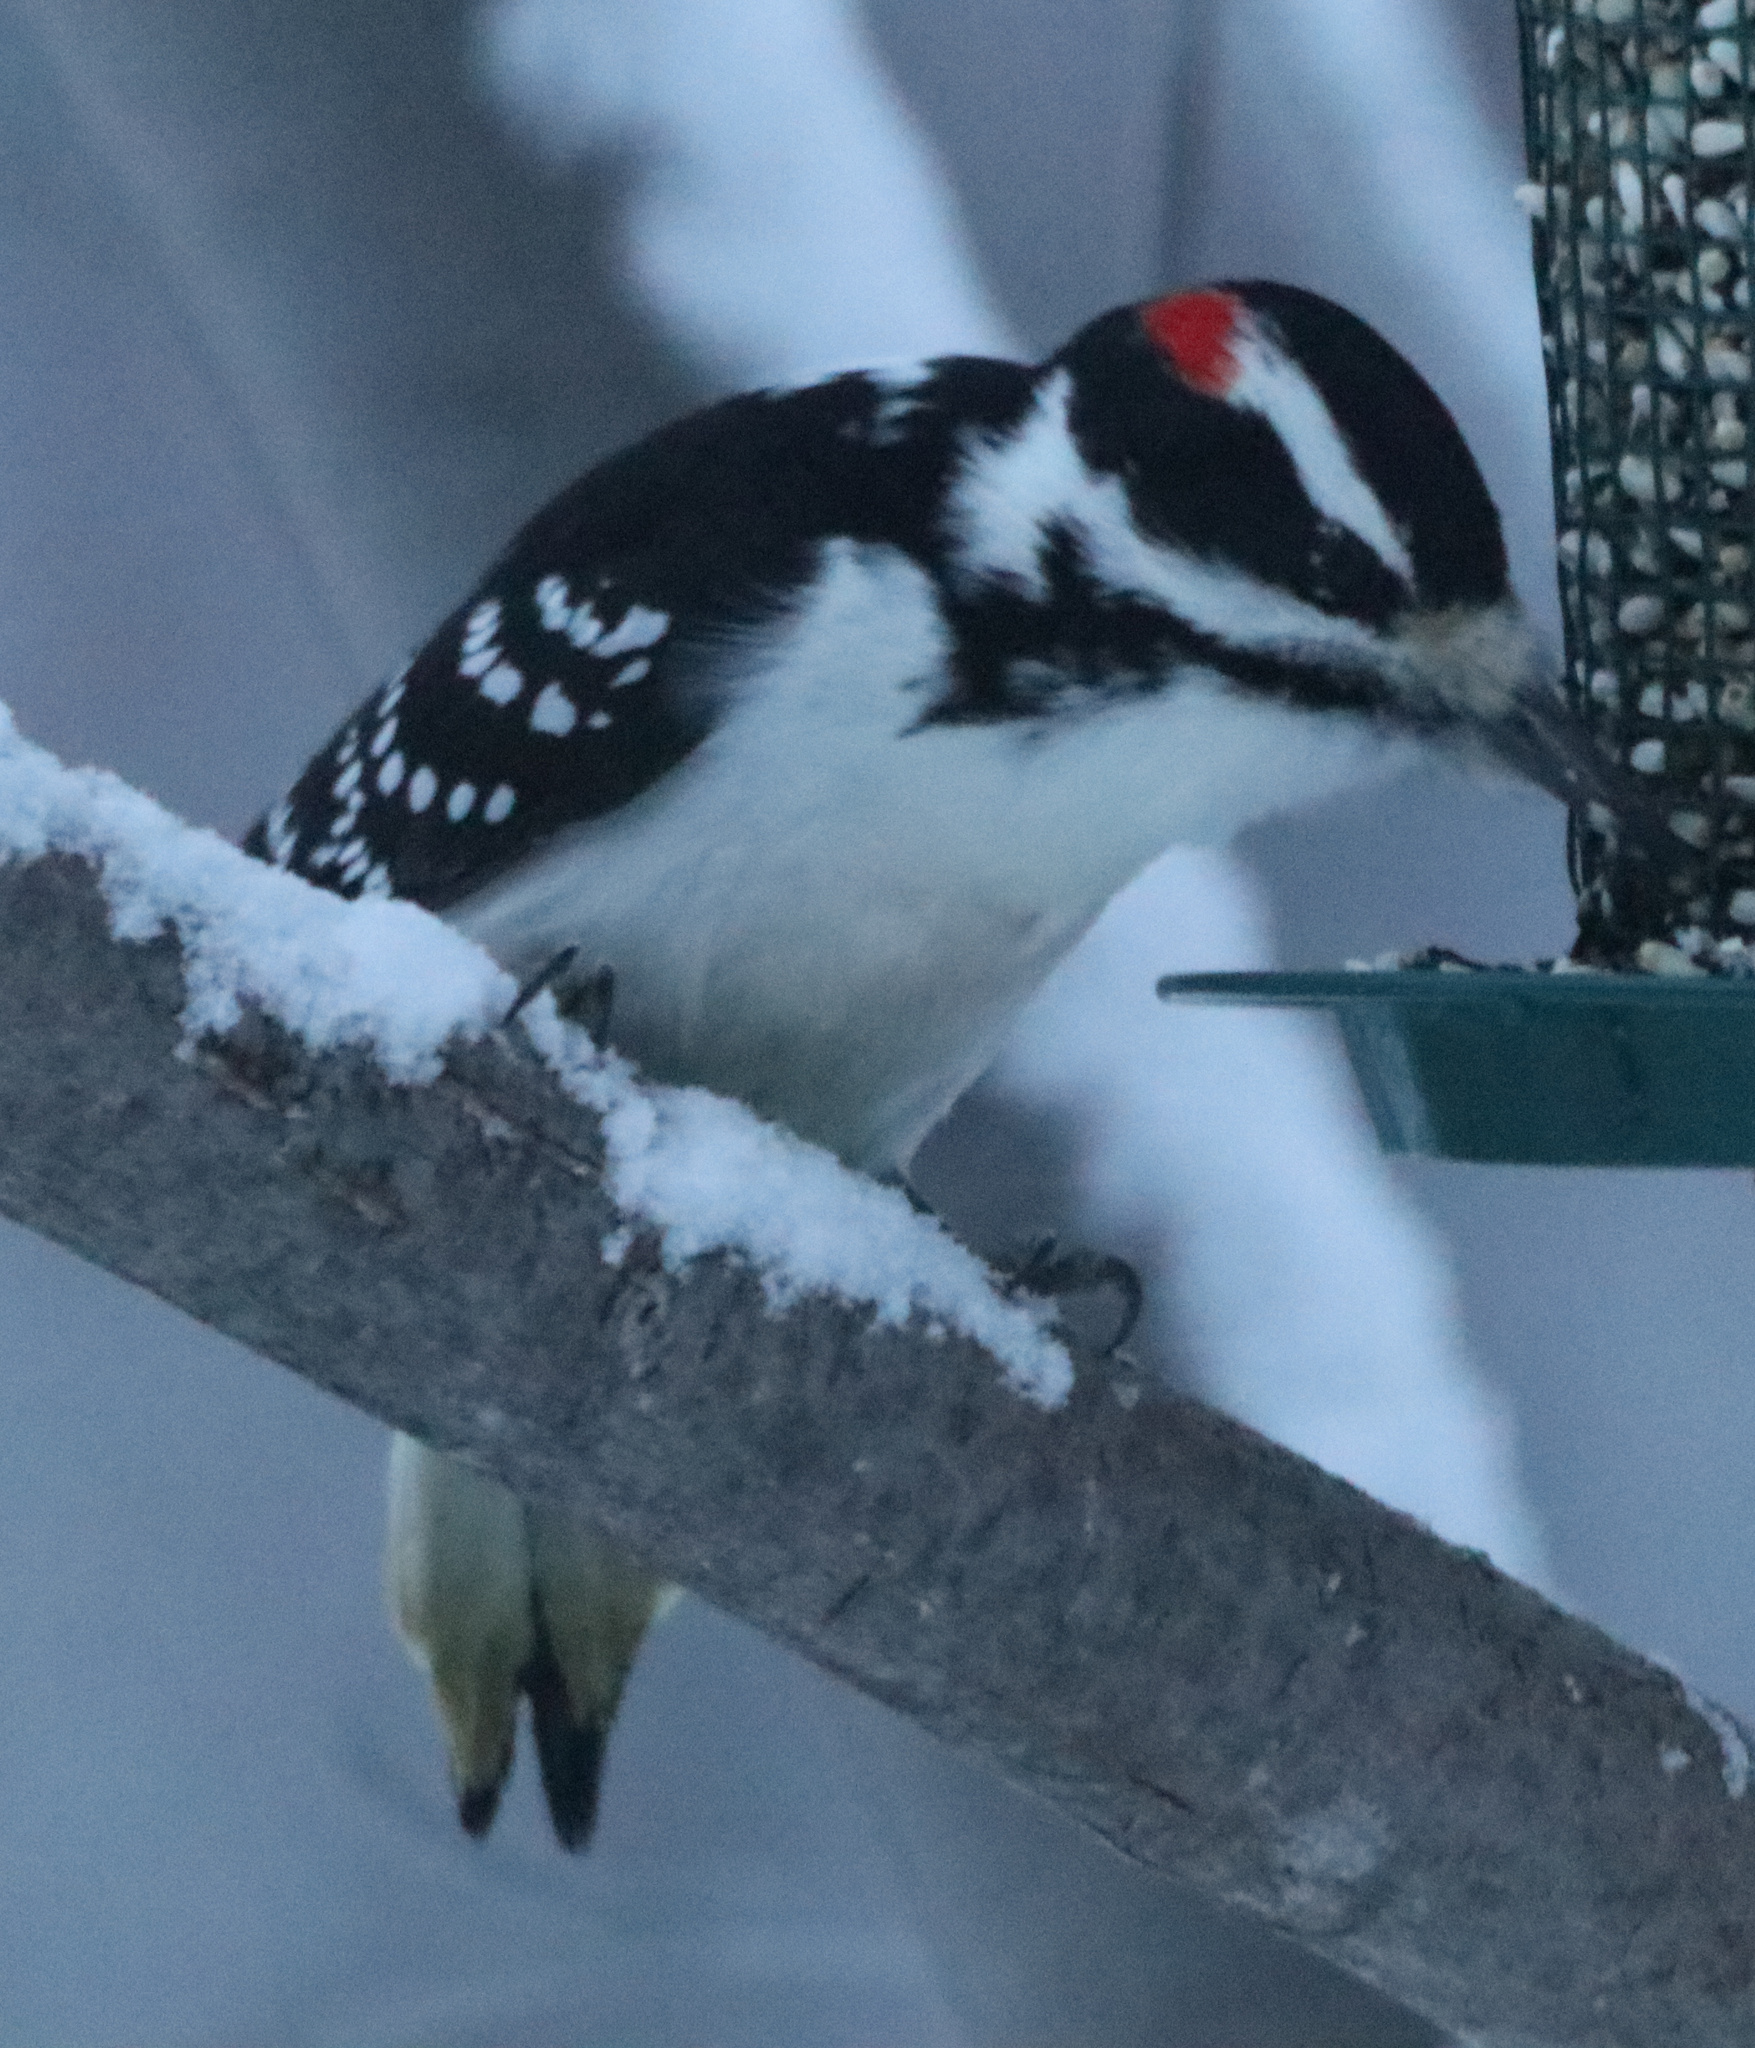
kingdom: Animalia
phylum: Chordata
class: Aves
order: Piciformes
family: Picidae
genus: Leuconotopicus
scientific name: Leuconotopicus villosus
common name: Hairy woodpecker
